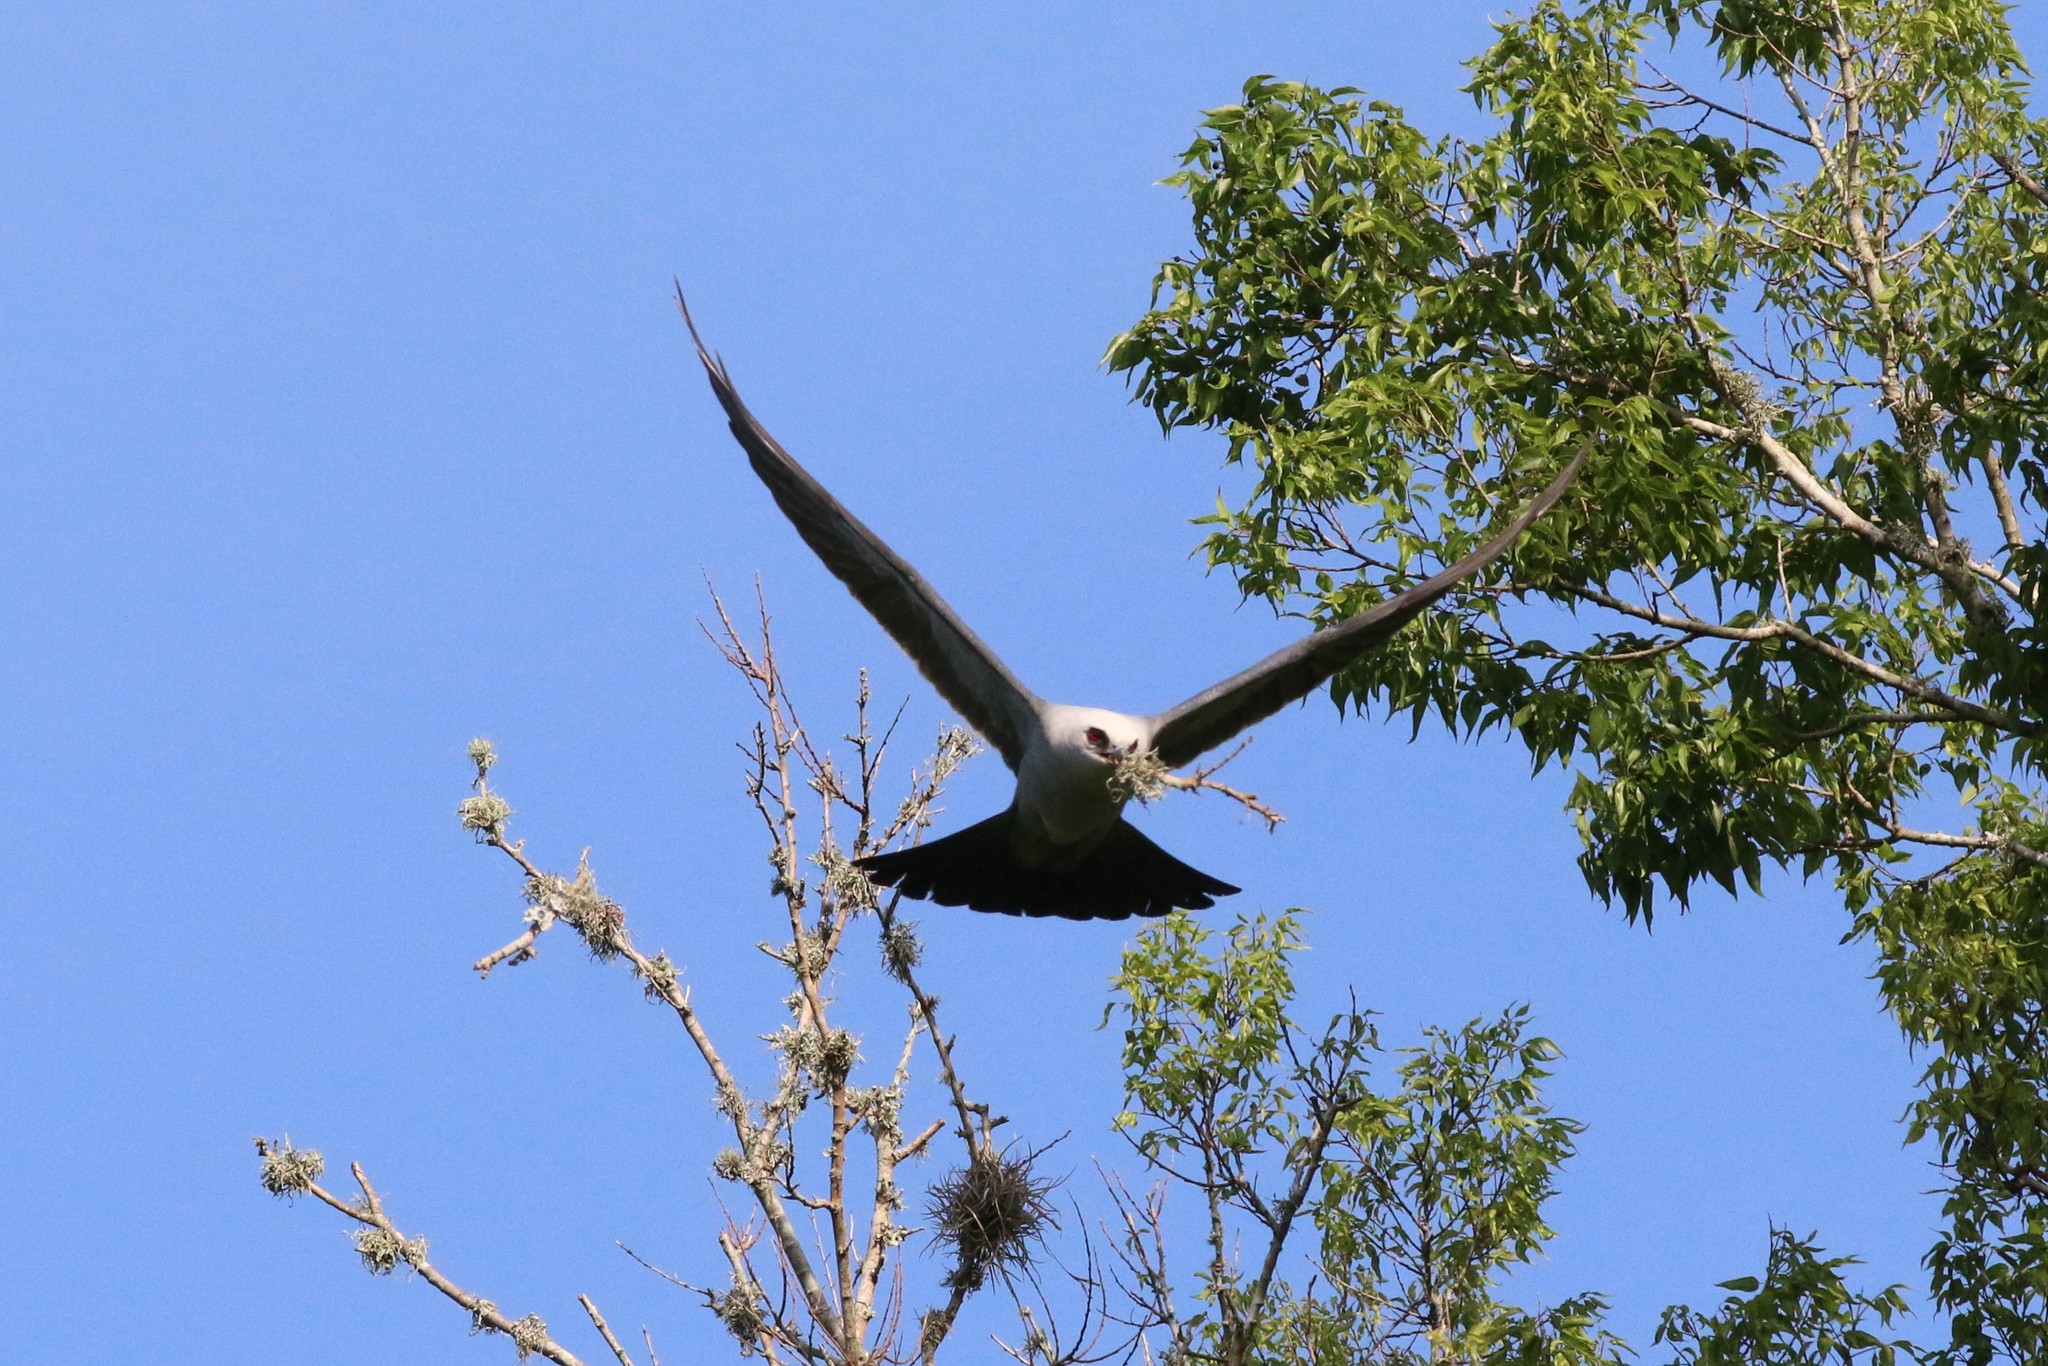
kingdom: Animalia
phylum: Chordata
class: Aves
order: Accipitriformes
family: Accipitridae
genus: Ictinia
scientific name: Ictinia mississippiensis
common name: Mississippi kite
